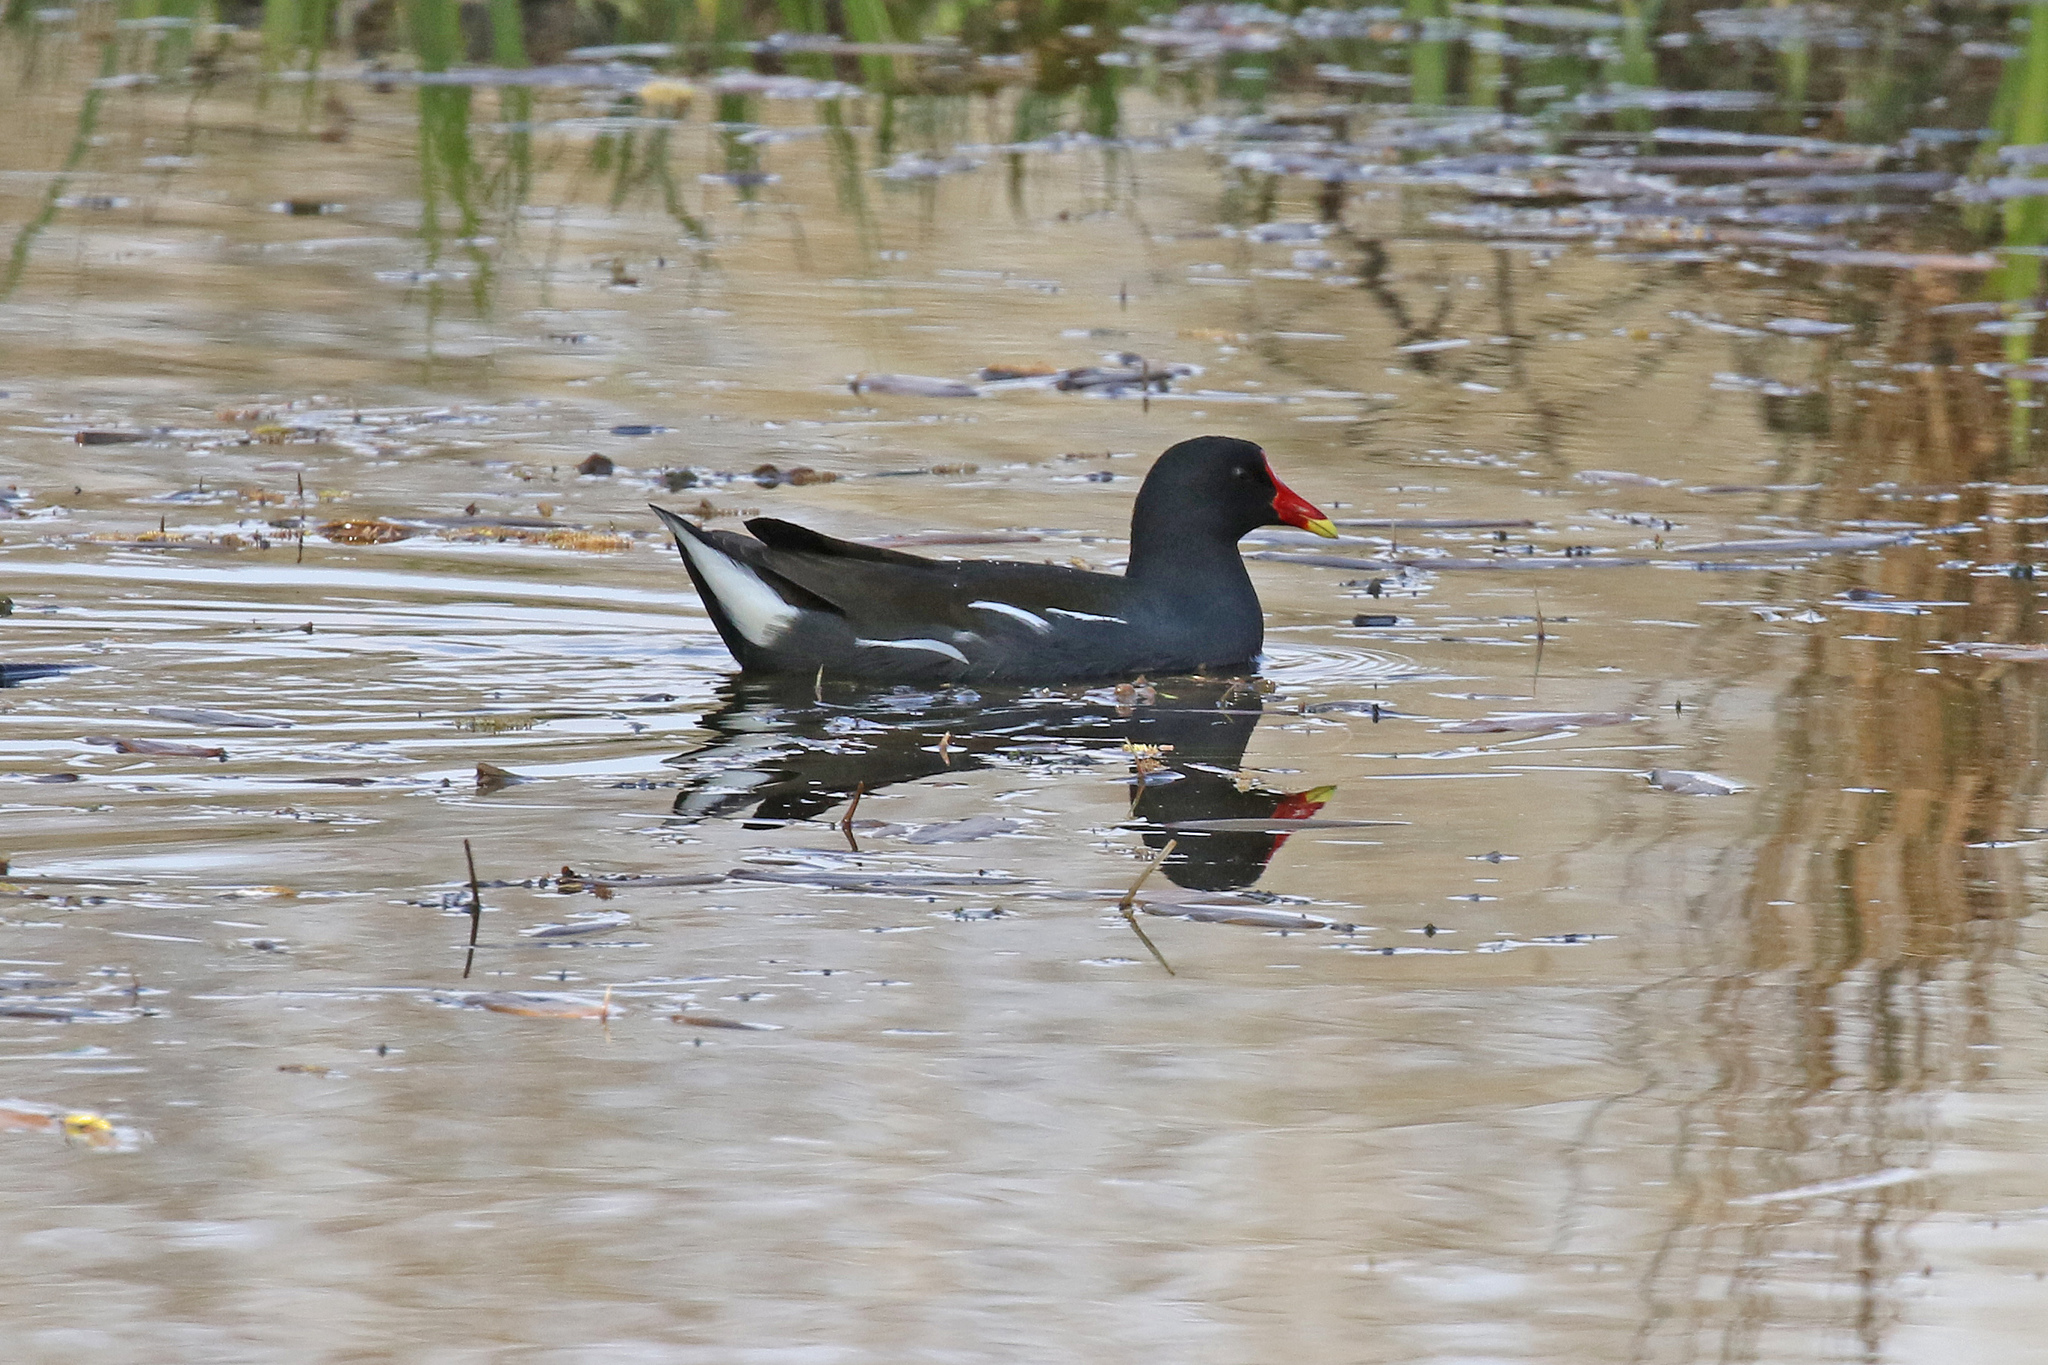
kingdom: Animalia
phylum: Chordata
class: Aves
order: Gruiformes
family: Rallidae
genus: Gallinula
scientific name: Gallinula chloropus
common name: Common moorhen
